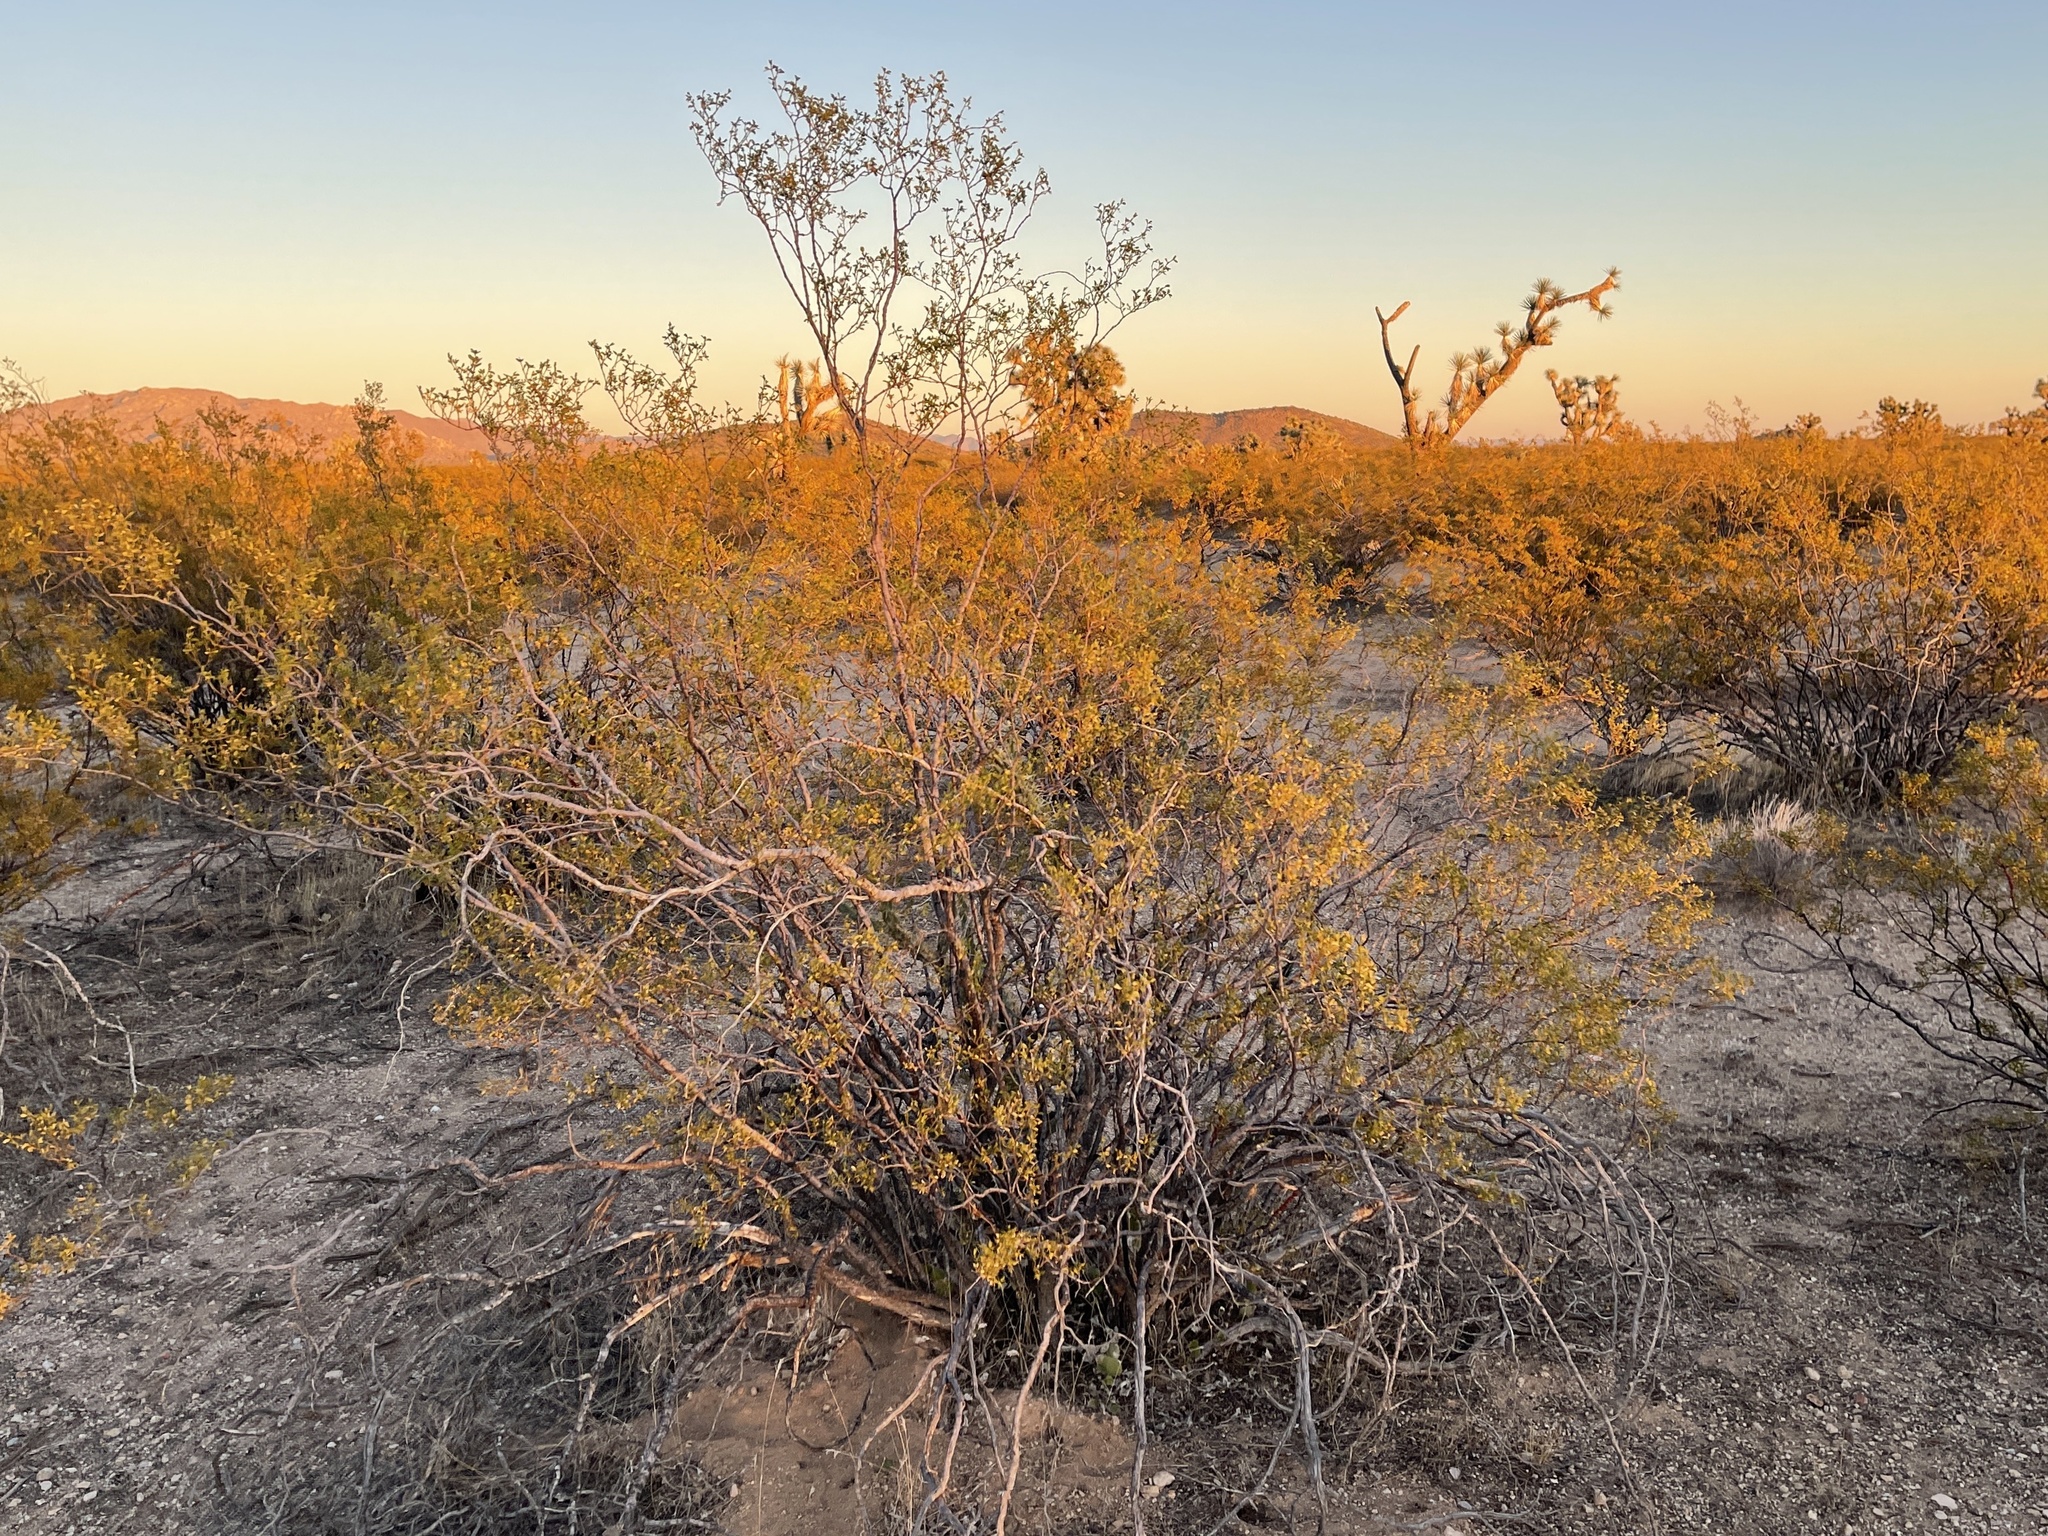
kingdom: Plantae
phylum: Tracheophyta
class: Magnoliopsida
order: Zygophyllales
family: Zygophyllaceae
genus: Larrea
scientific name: Larrea tridentata
